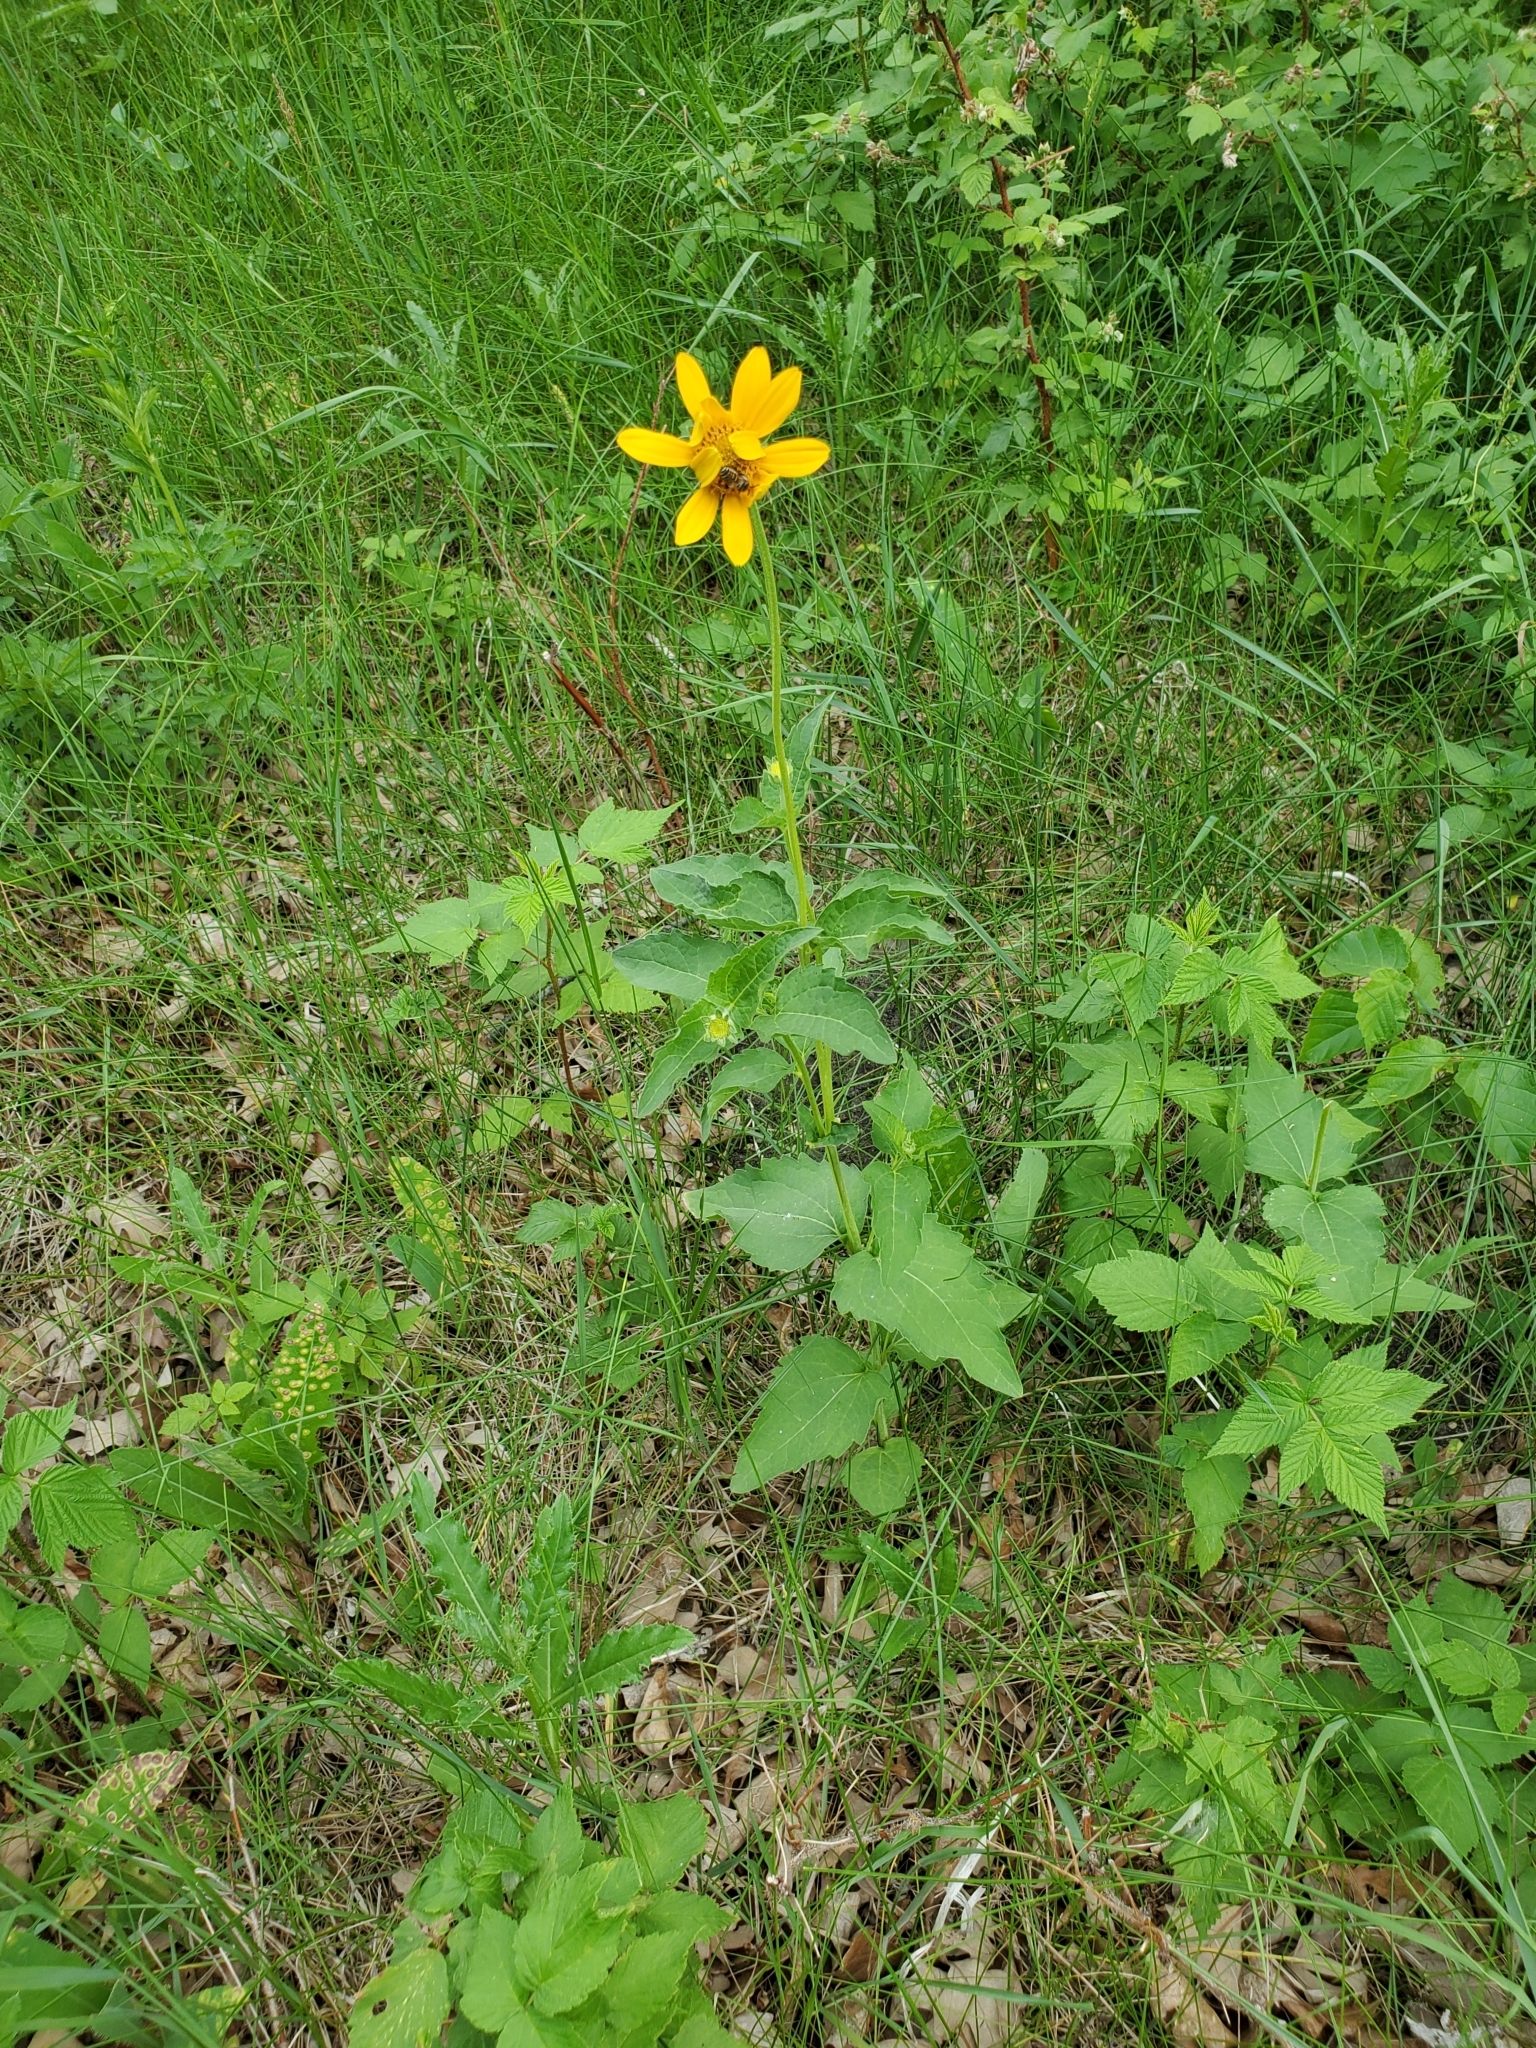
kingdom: Plantae
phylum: Tracheophyta
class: Magnoliopsida
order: Asterales
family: Asteraceae
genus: Heliopsis
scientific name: Heliopsis helianthoides
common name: False sunflower
